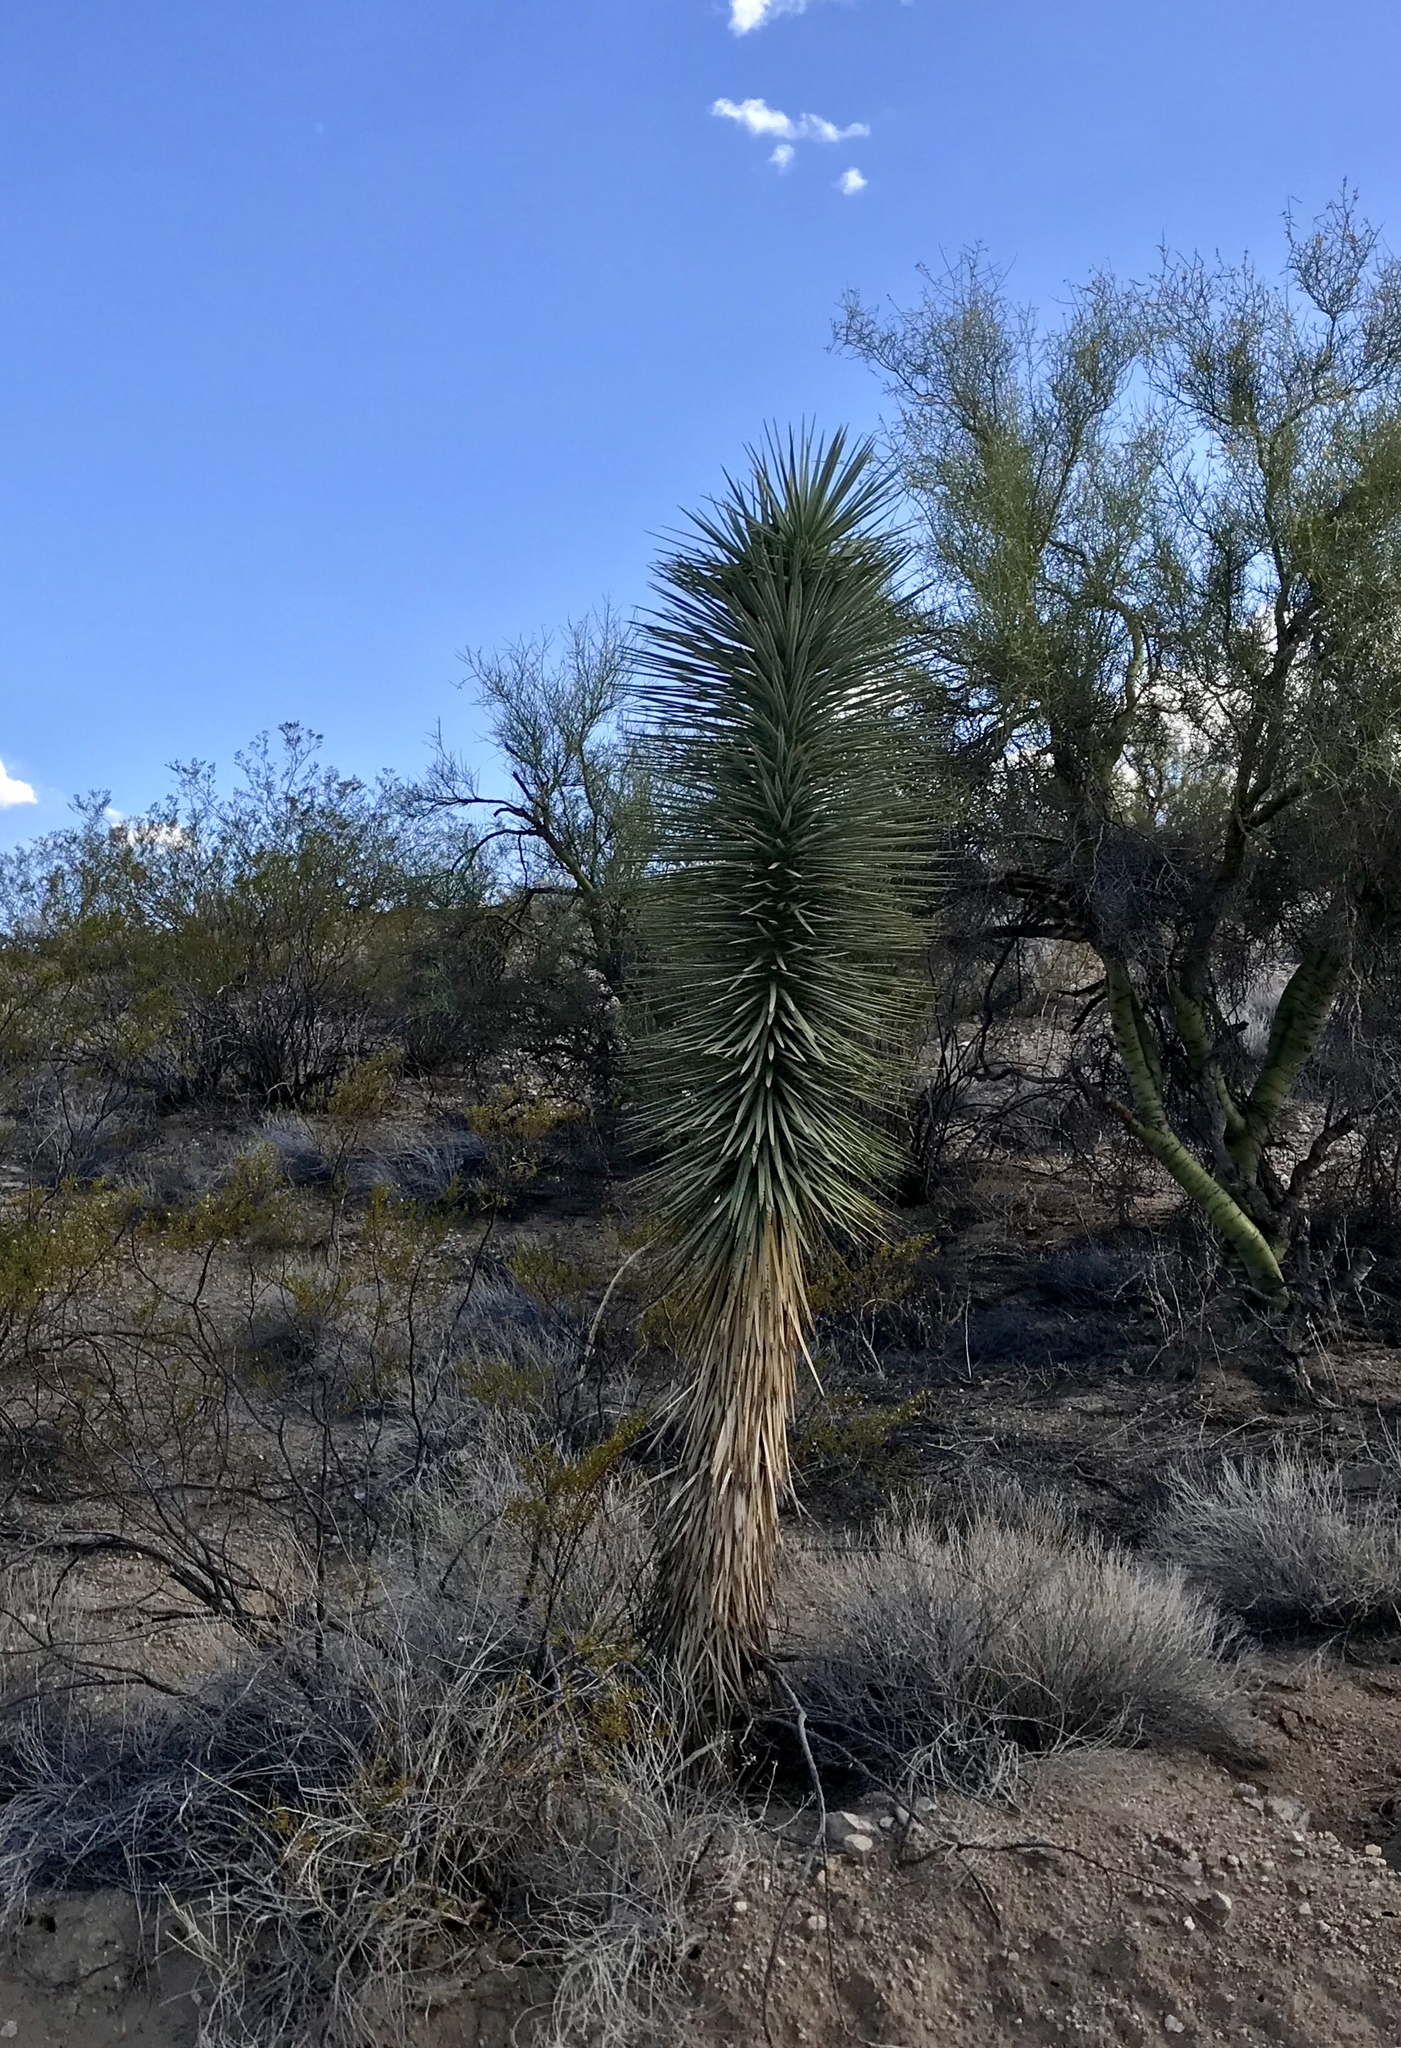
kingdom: Plantae
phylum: Tracheophyta
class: Liliopsida
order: Asparagales
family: Asparagaceae
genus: Yucca
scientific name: Yucca brevifolia
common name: Joshua tree
